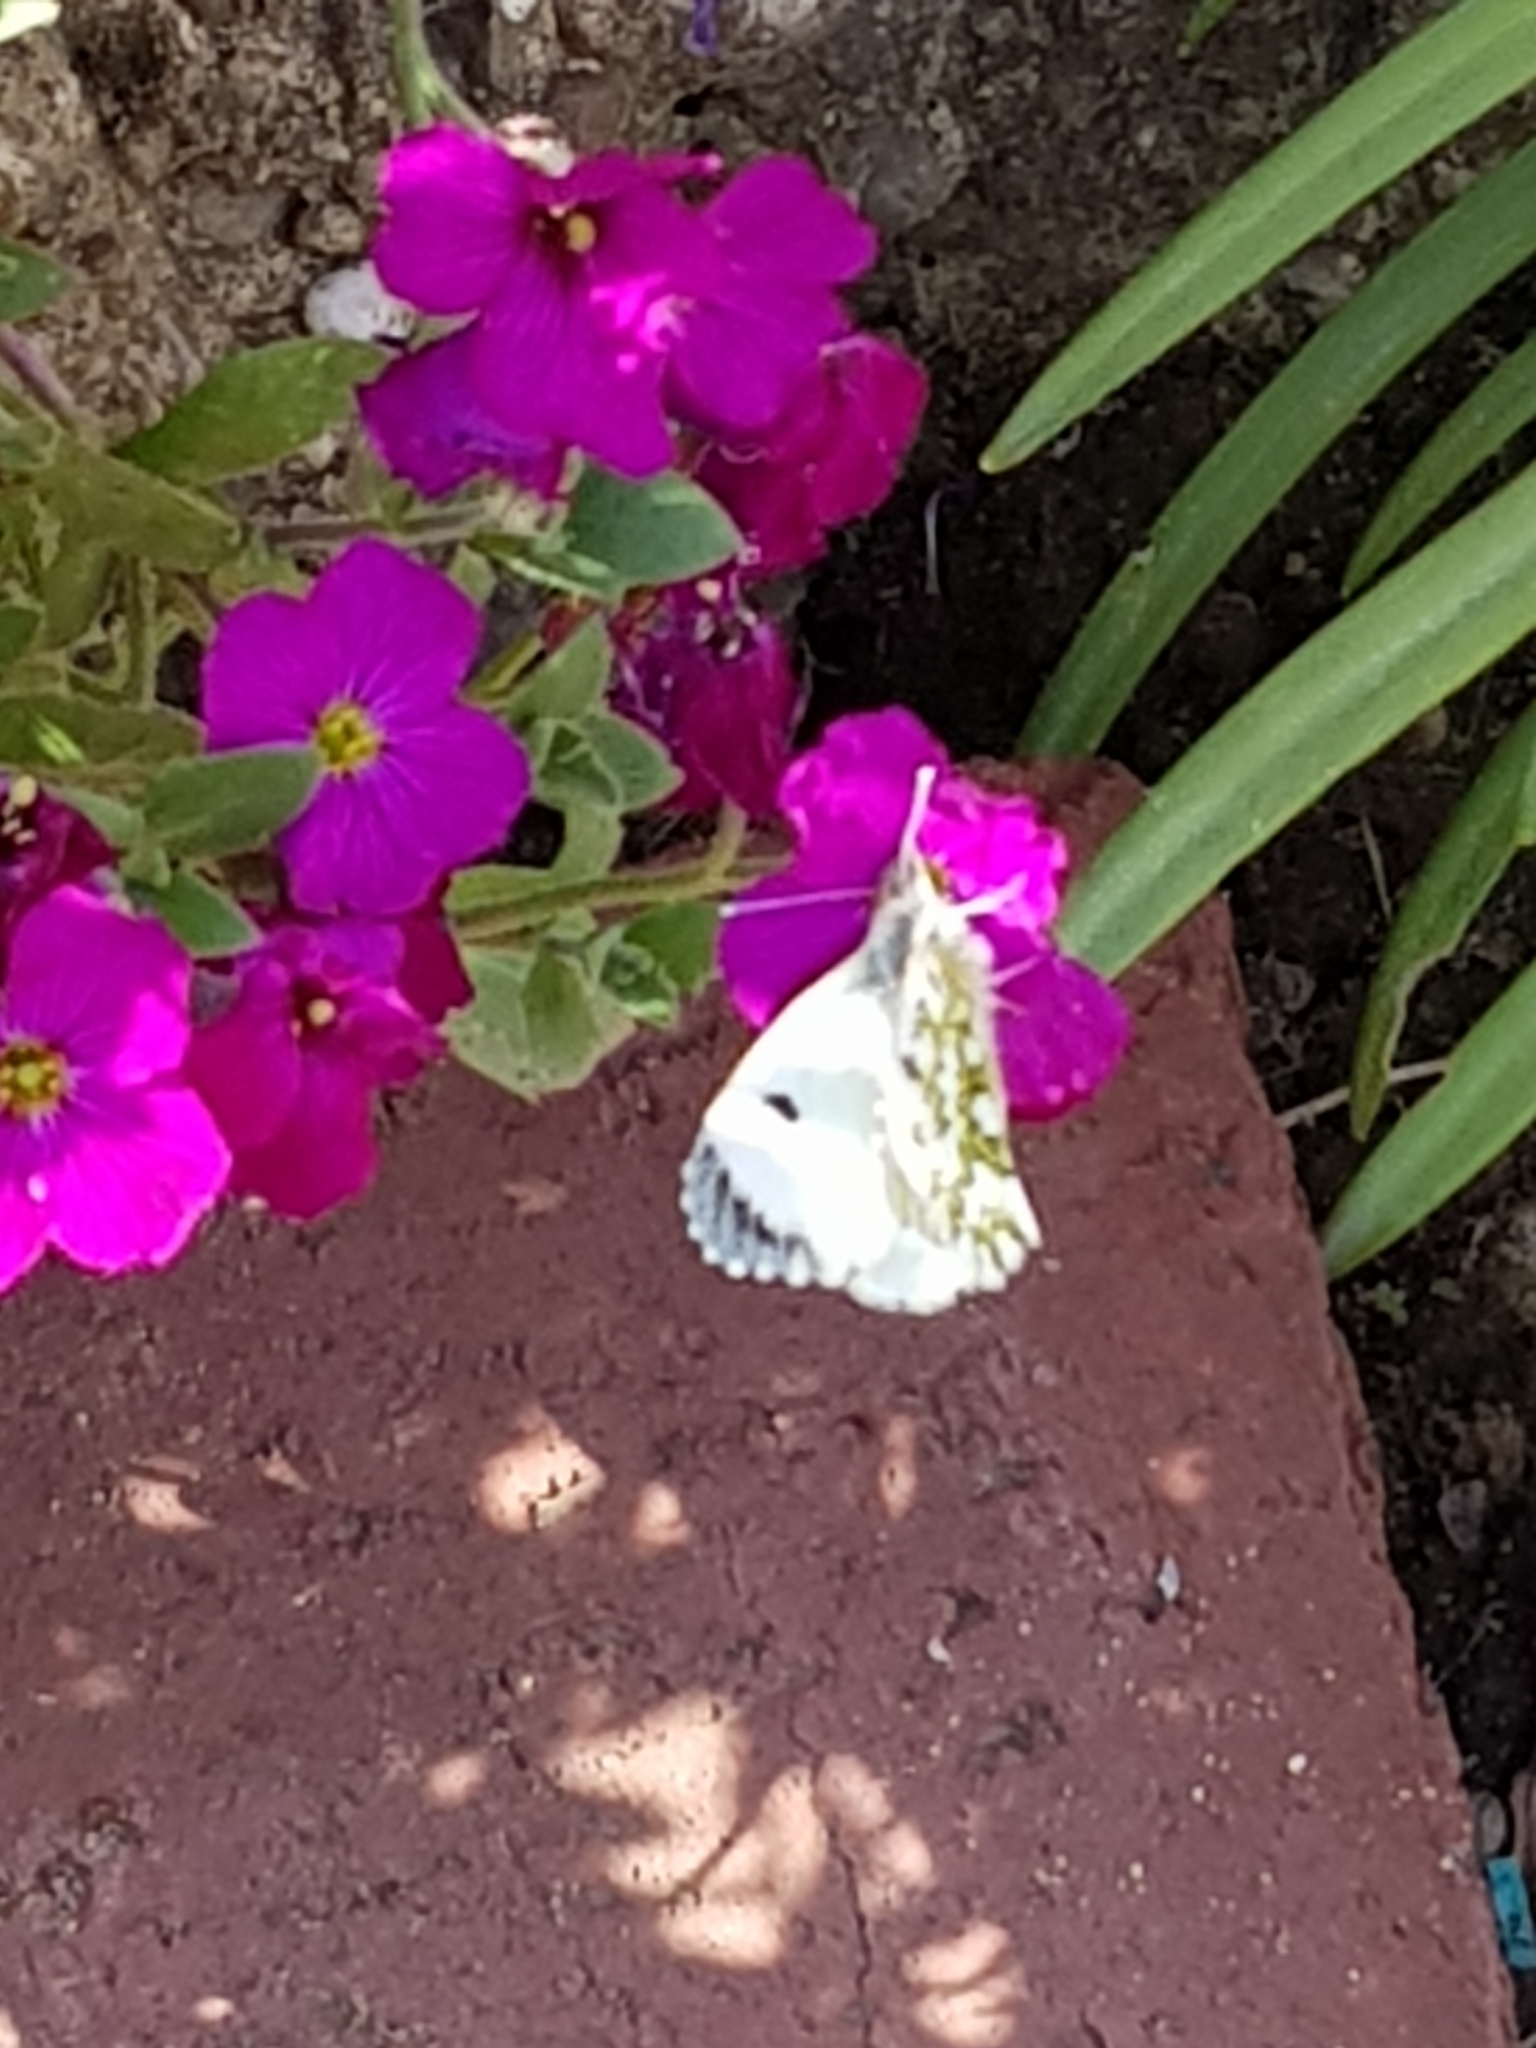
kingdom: Animalia
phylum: Arthropoda
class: Insecta
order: Lepidoptera
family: Pieridae
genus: Anthocharis
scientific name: Anthocharis cardamines
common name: Orange-tip
